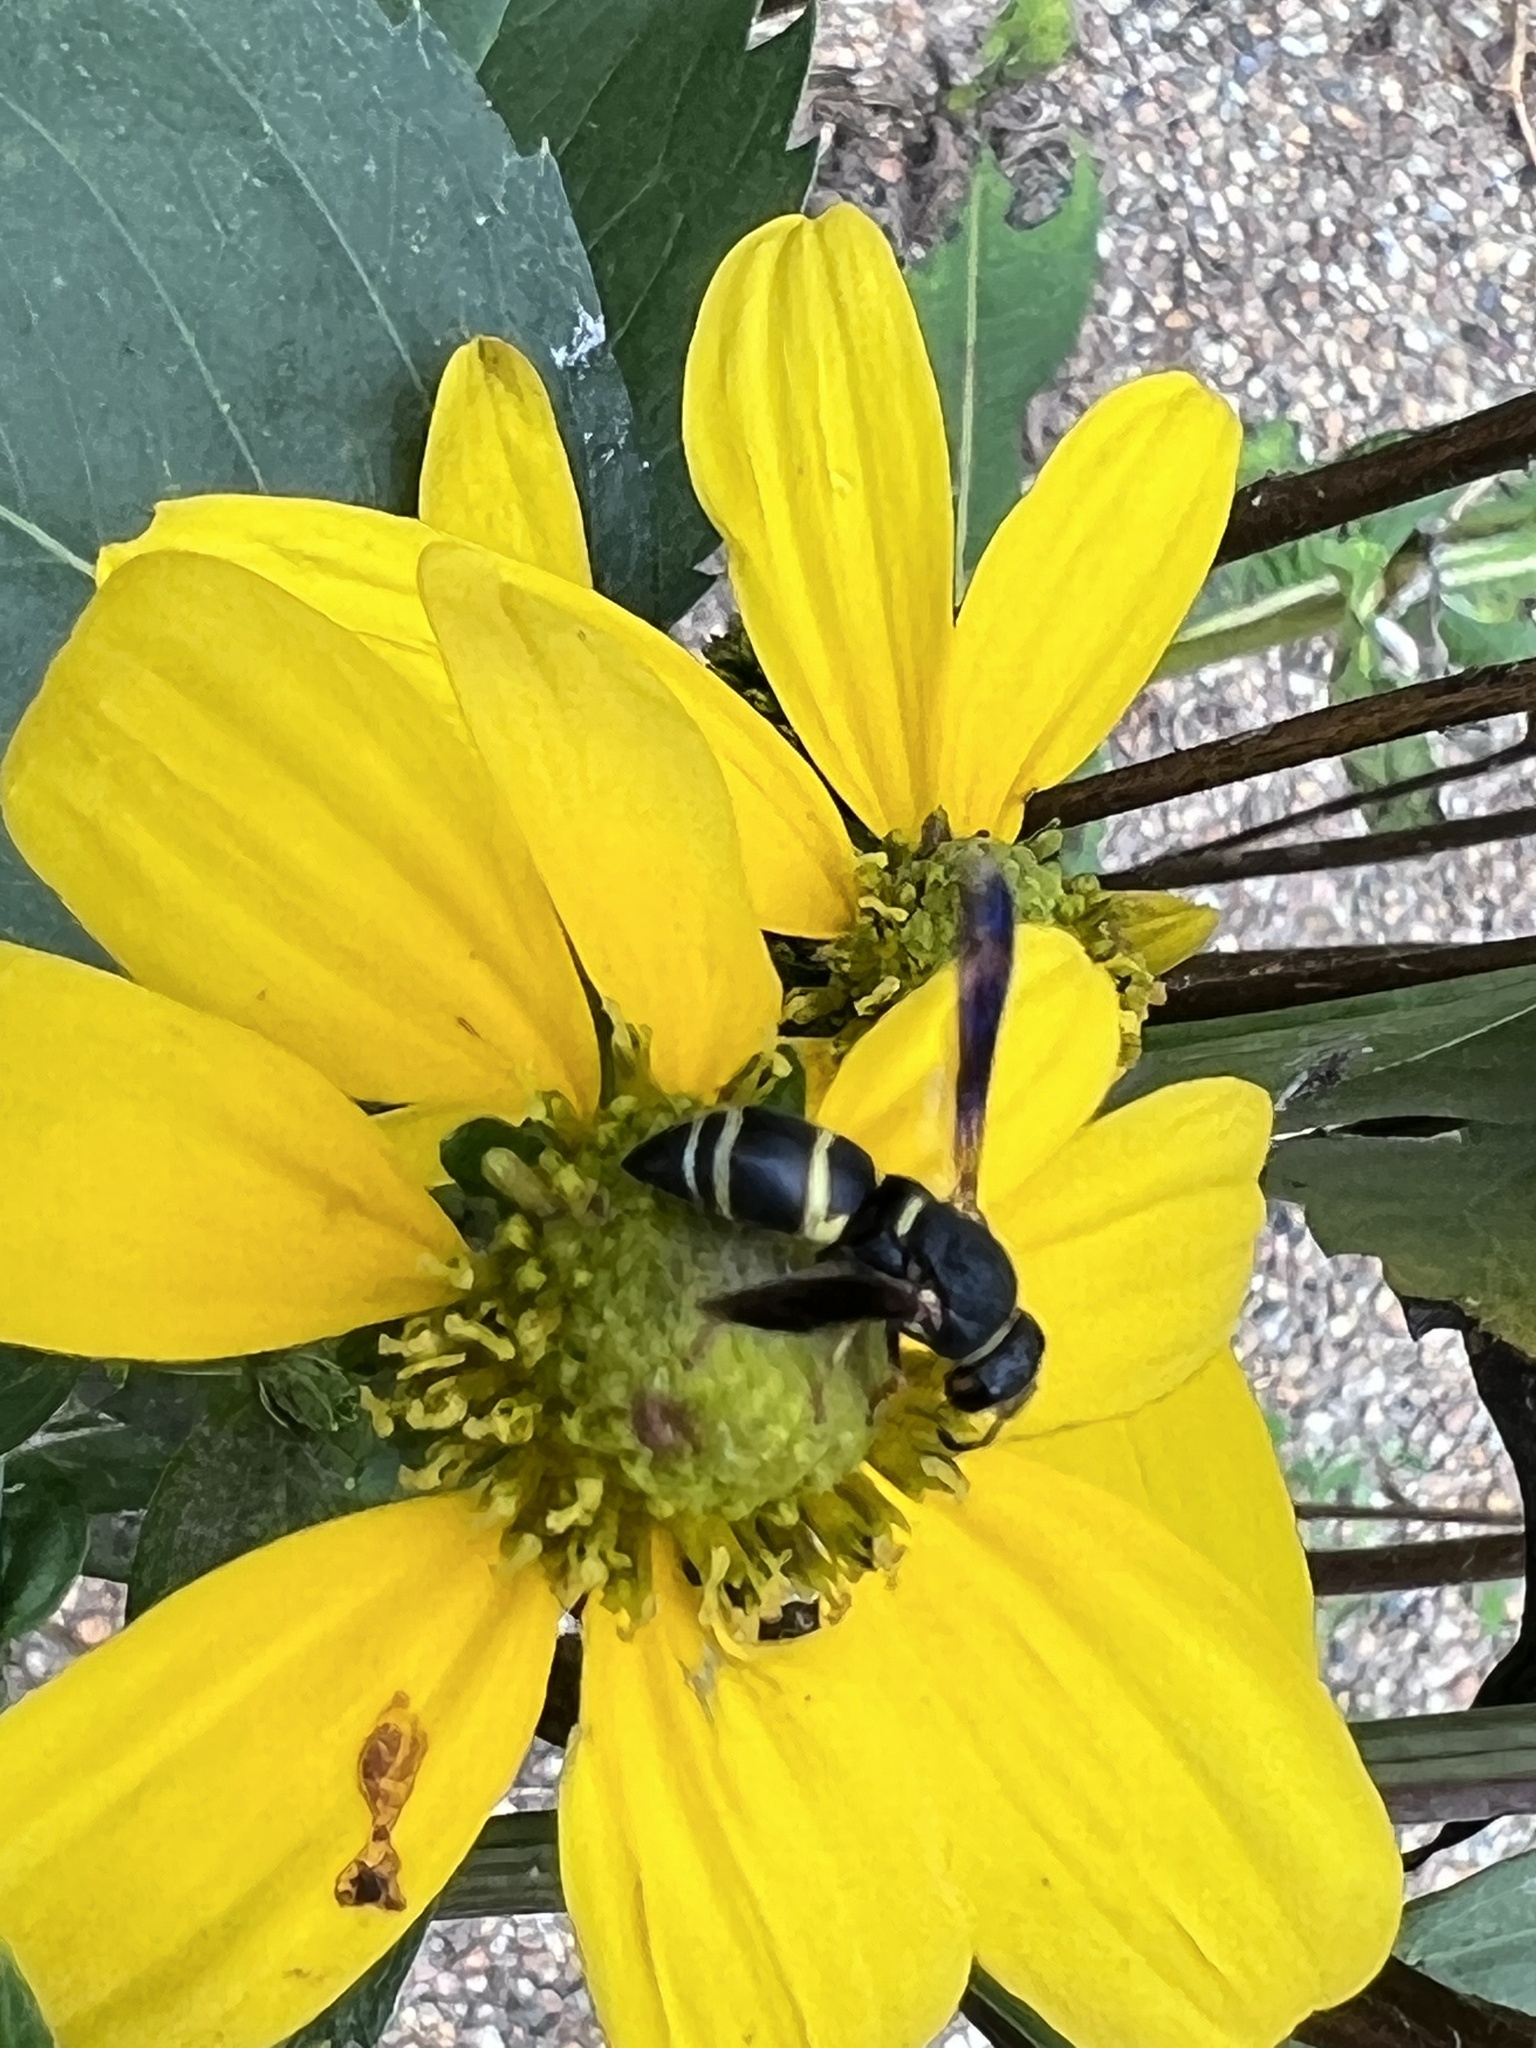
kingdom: Animalia
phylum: Arthropoda
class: Insecta
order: Hymenoptera
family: Eumenidae
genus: Euodynerus
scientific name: Euodynerus hidalgo
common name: Wasp
